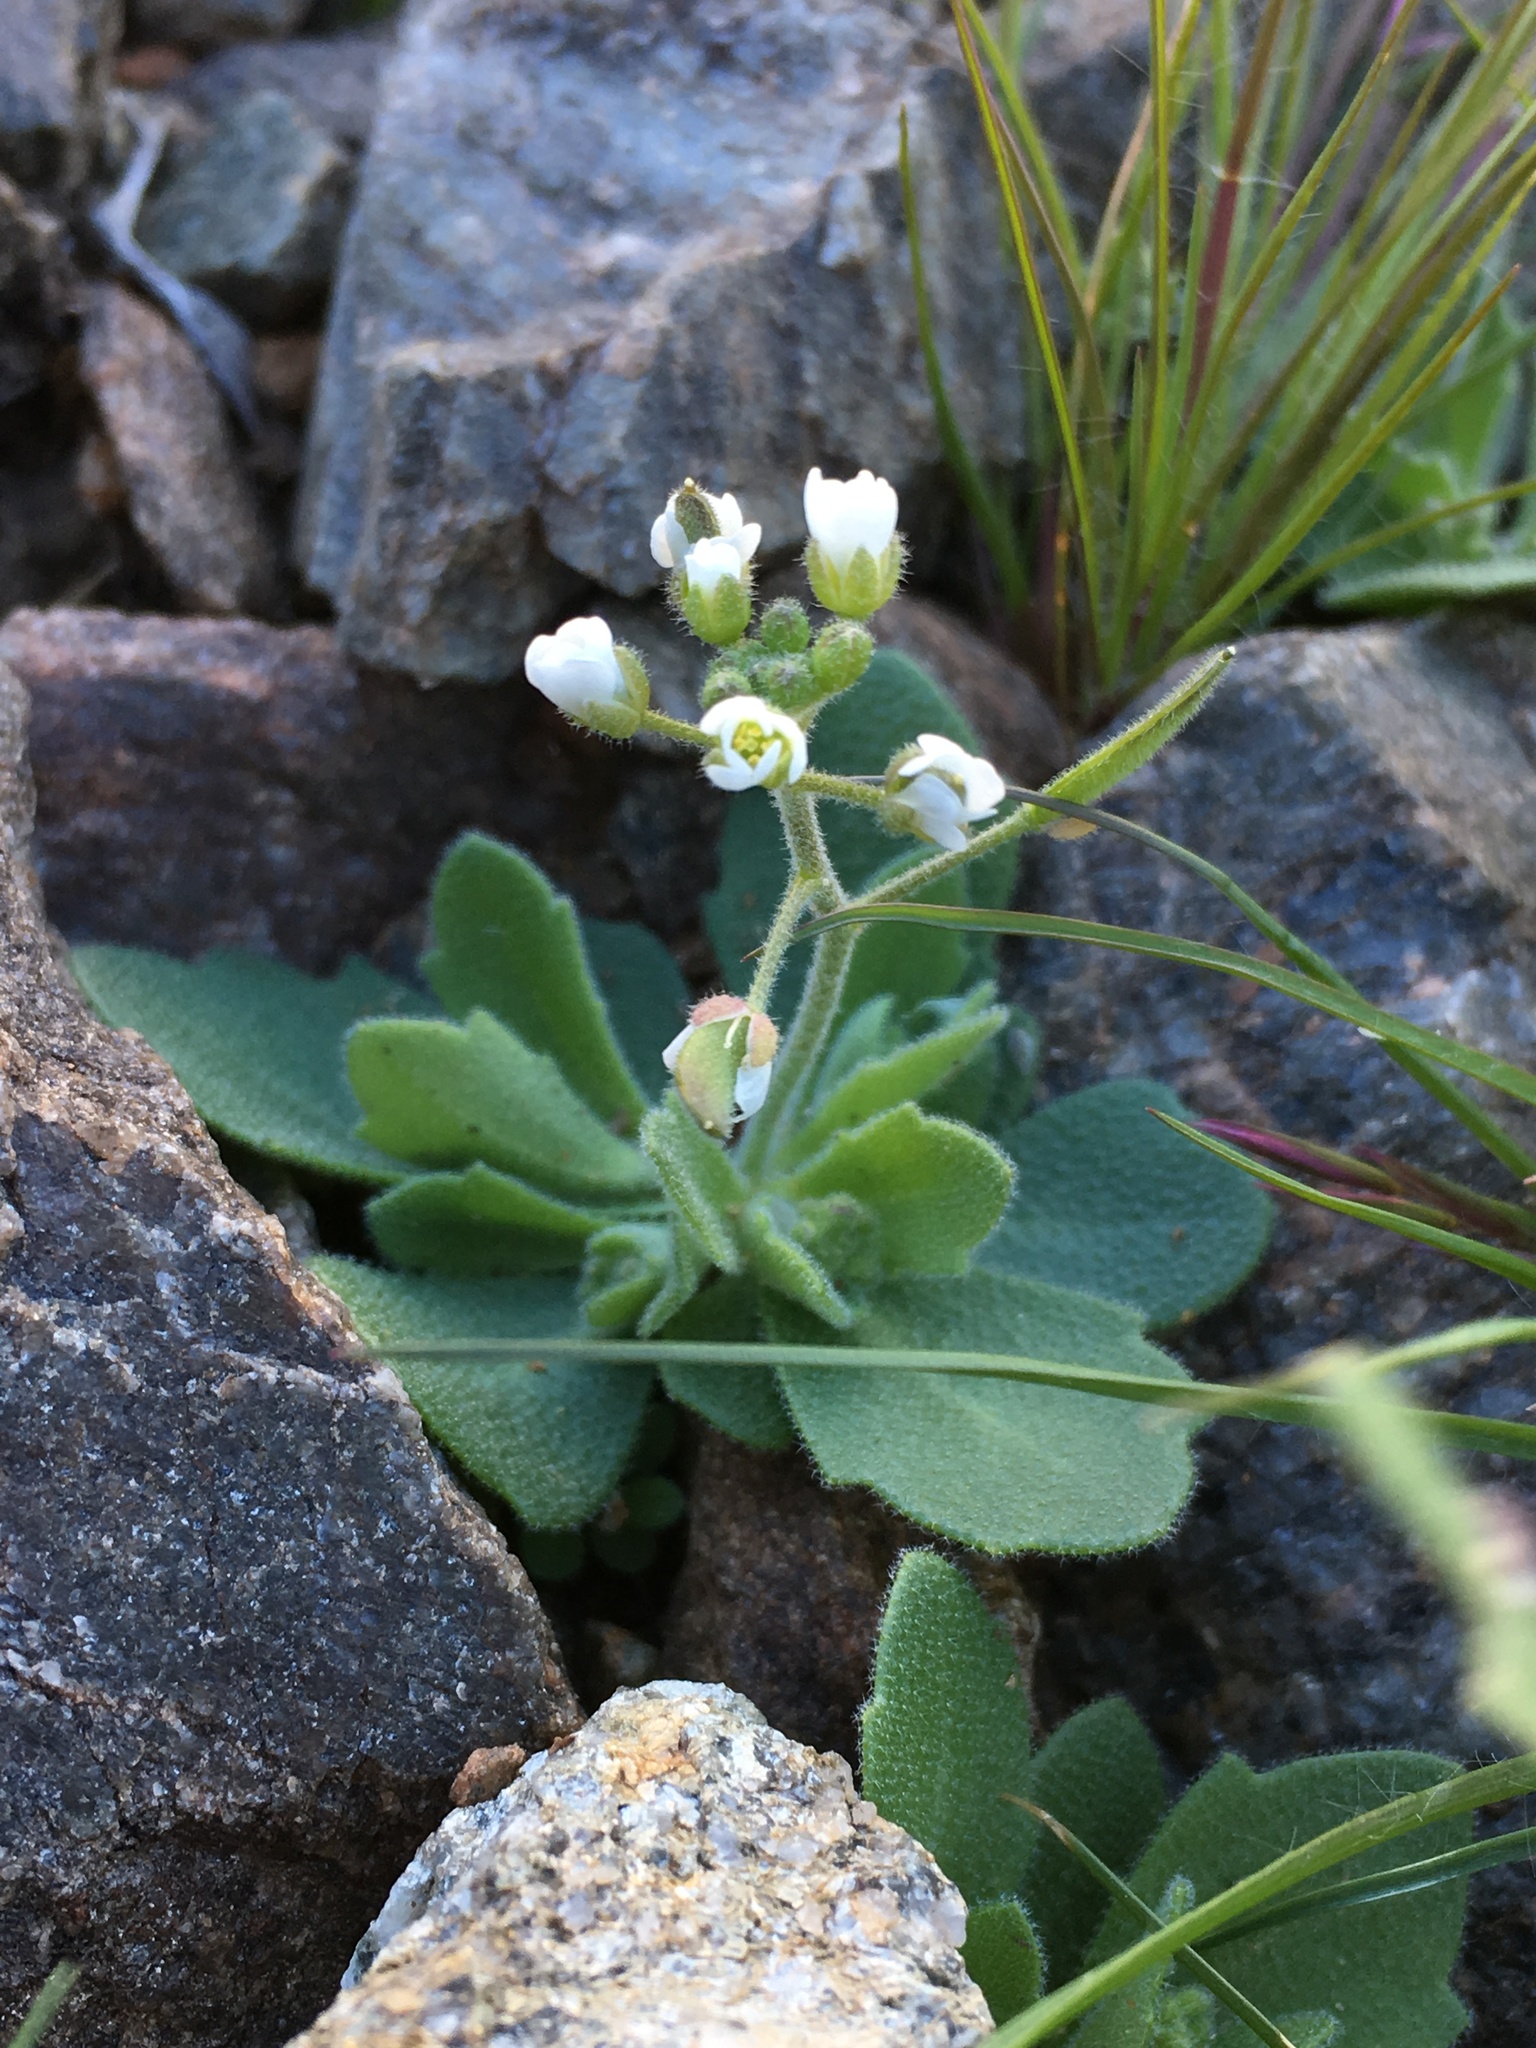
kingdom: Plantae
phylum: Tracheophyta
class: Magnoliopsida
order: Brassicales
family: Brassicaceae
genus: Tomostima
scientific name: Tomostima cuneifolia
